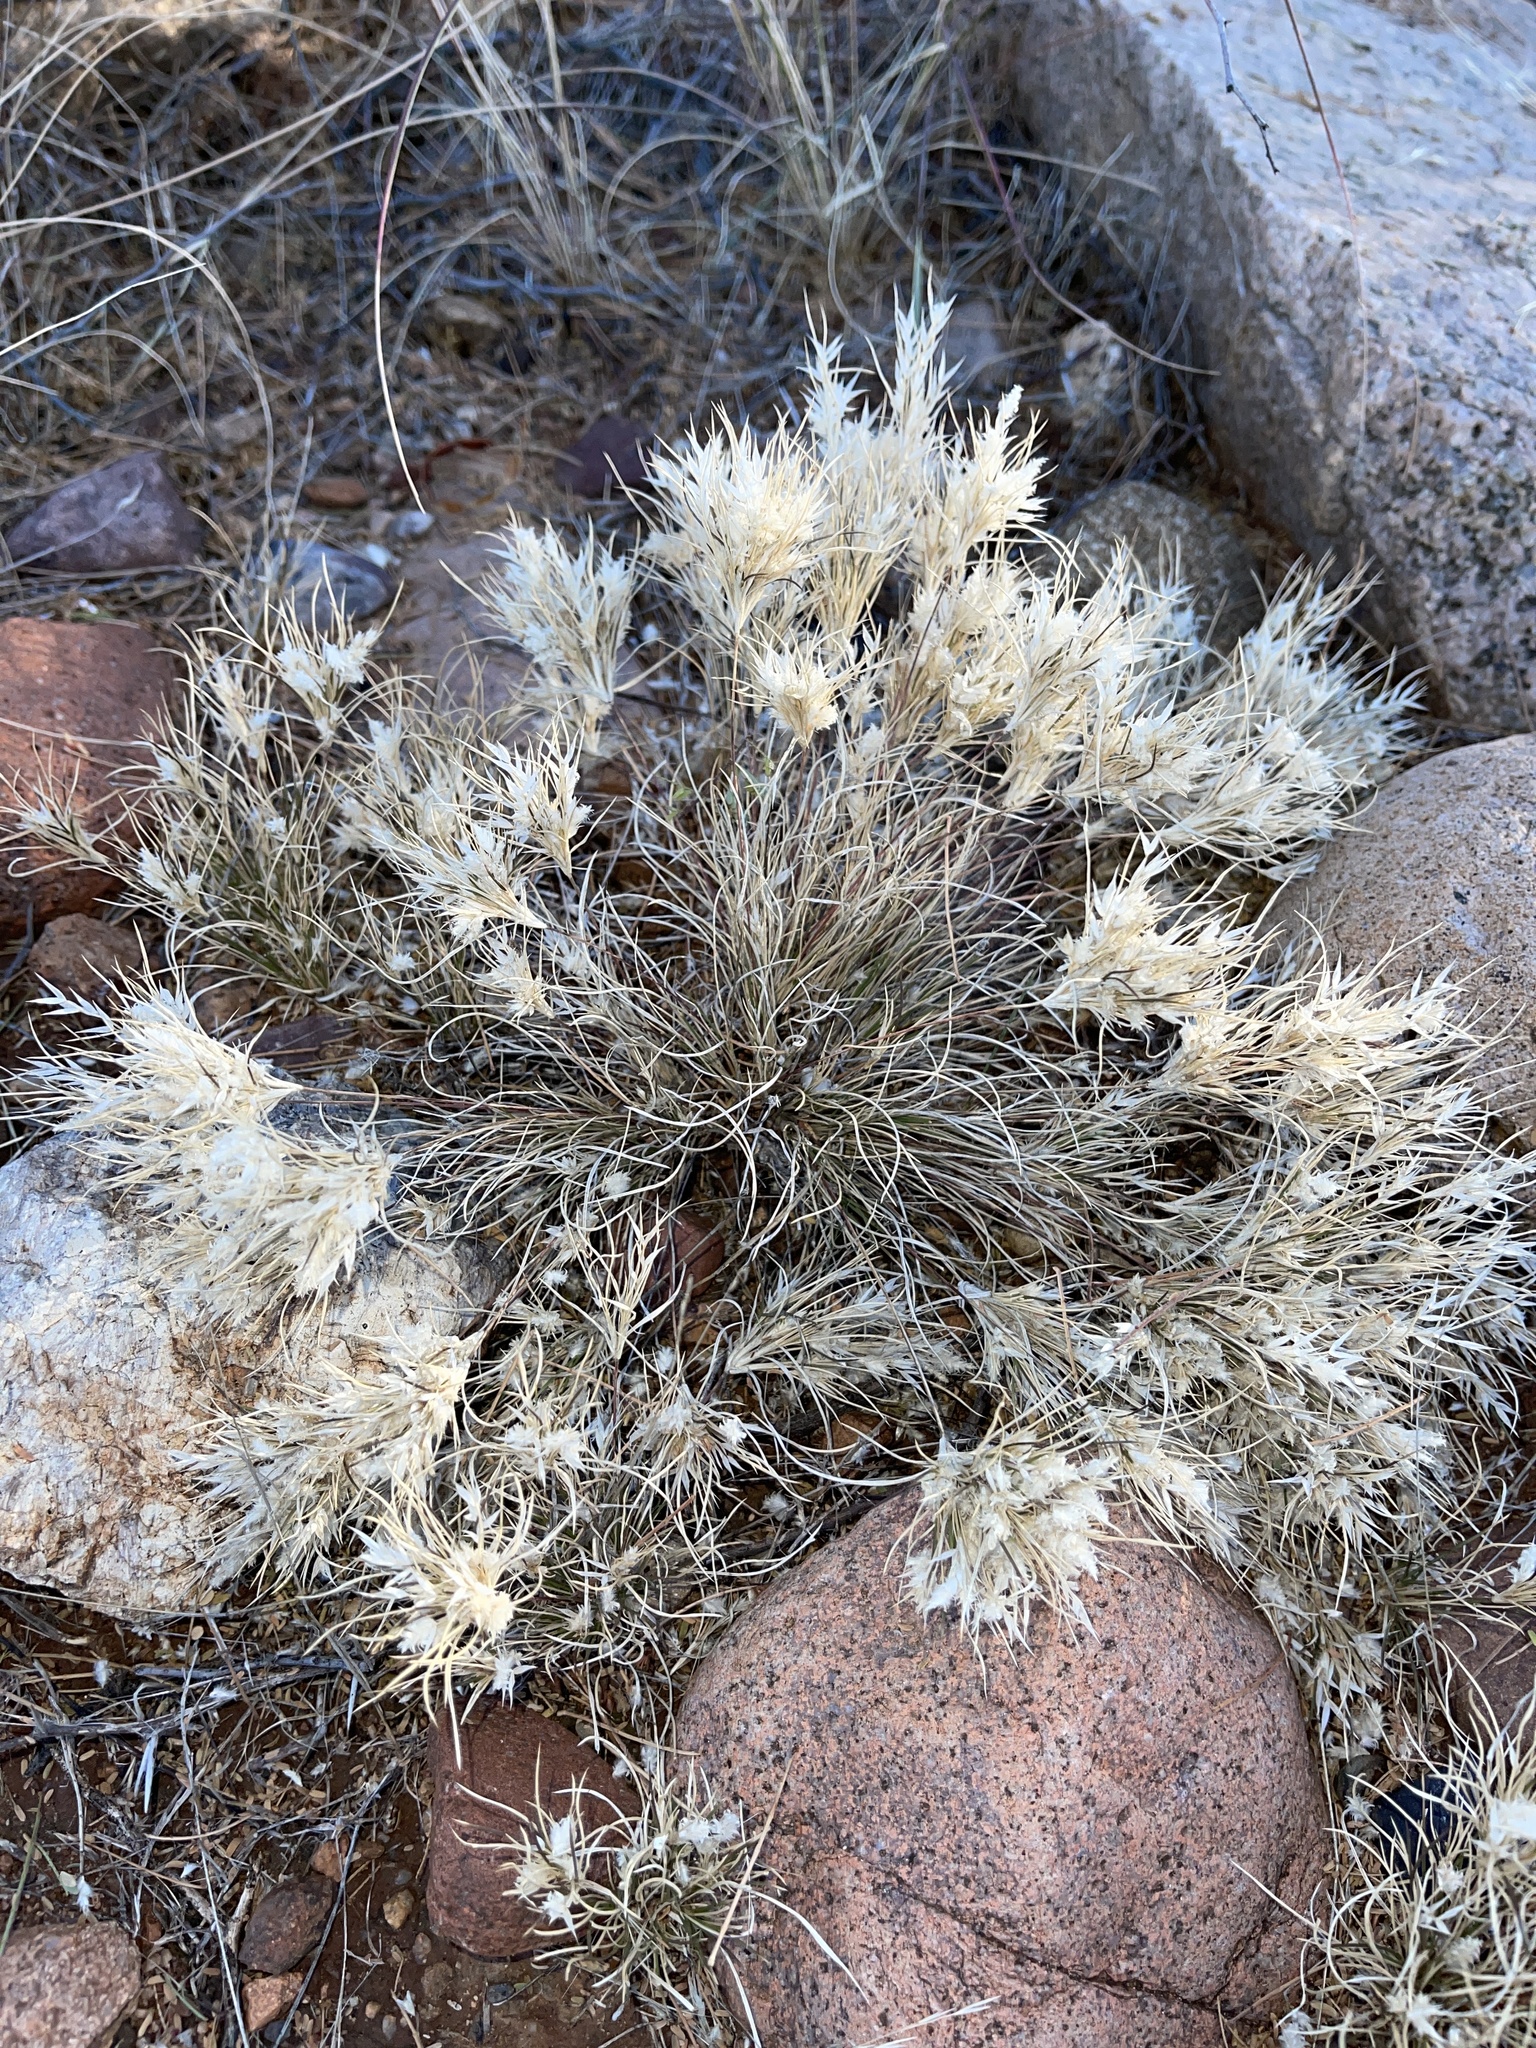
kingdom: Plantae
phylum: Tracheophyta
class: Liliopsida
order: Poales
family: Poaceae
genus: Dasyochloa
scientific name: Dasyochloa pulchella
